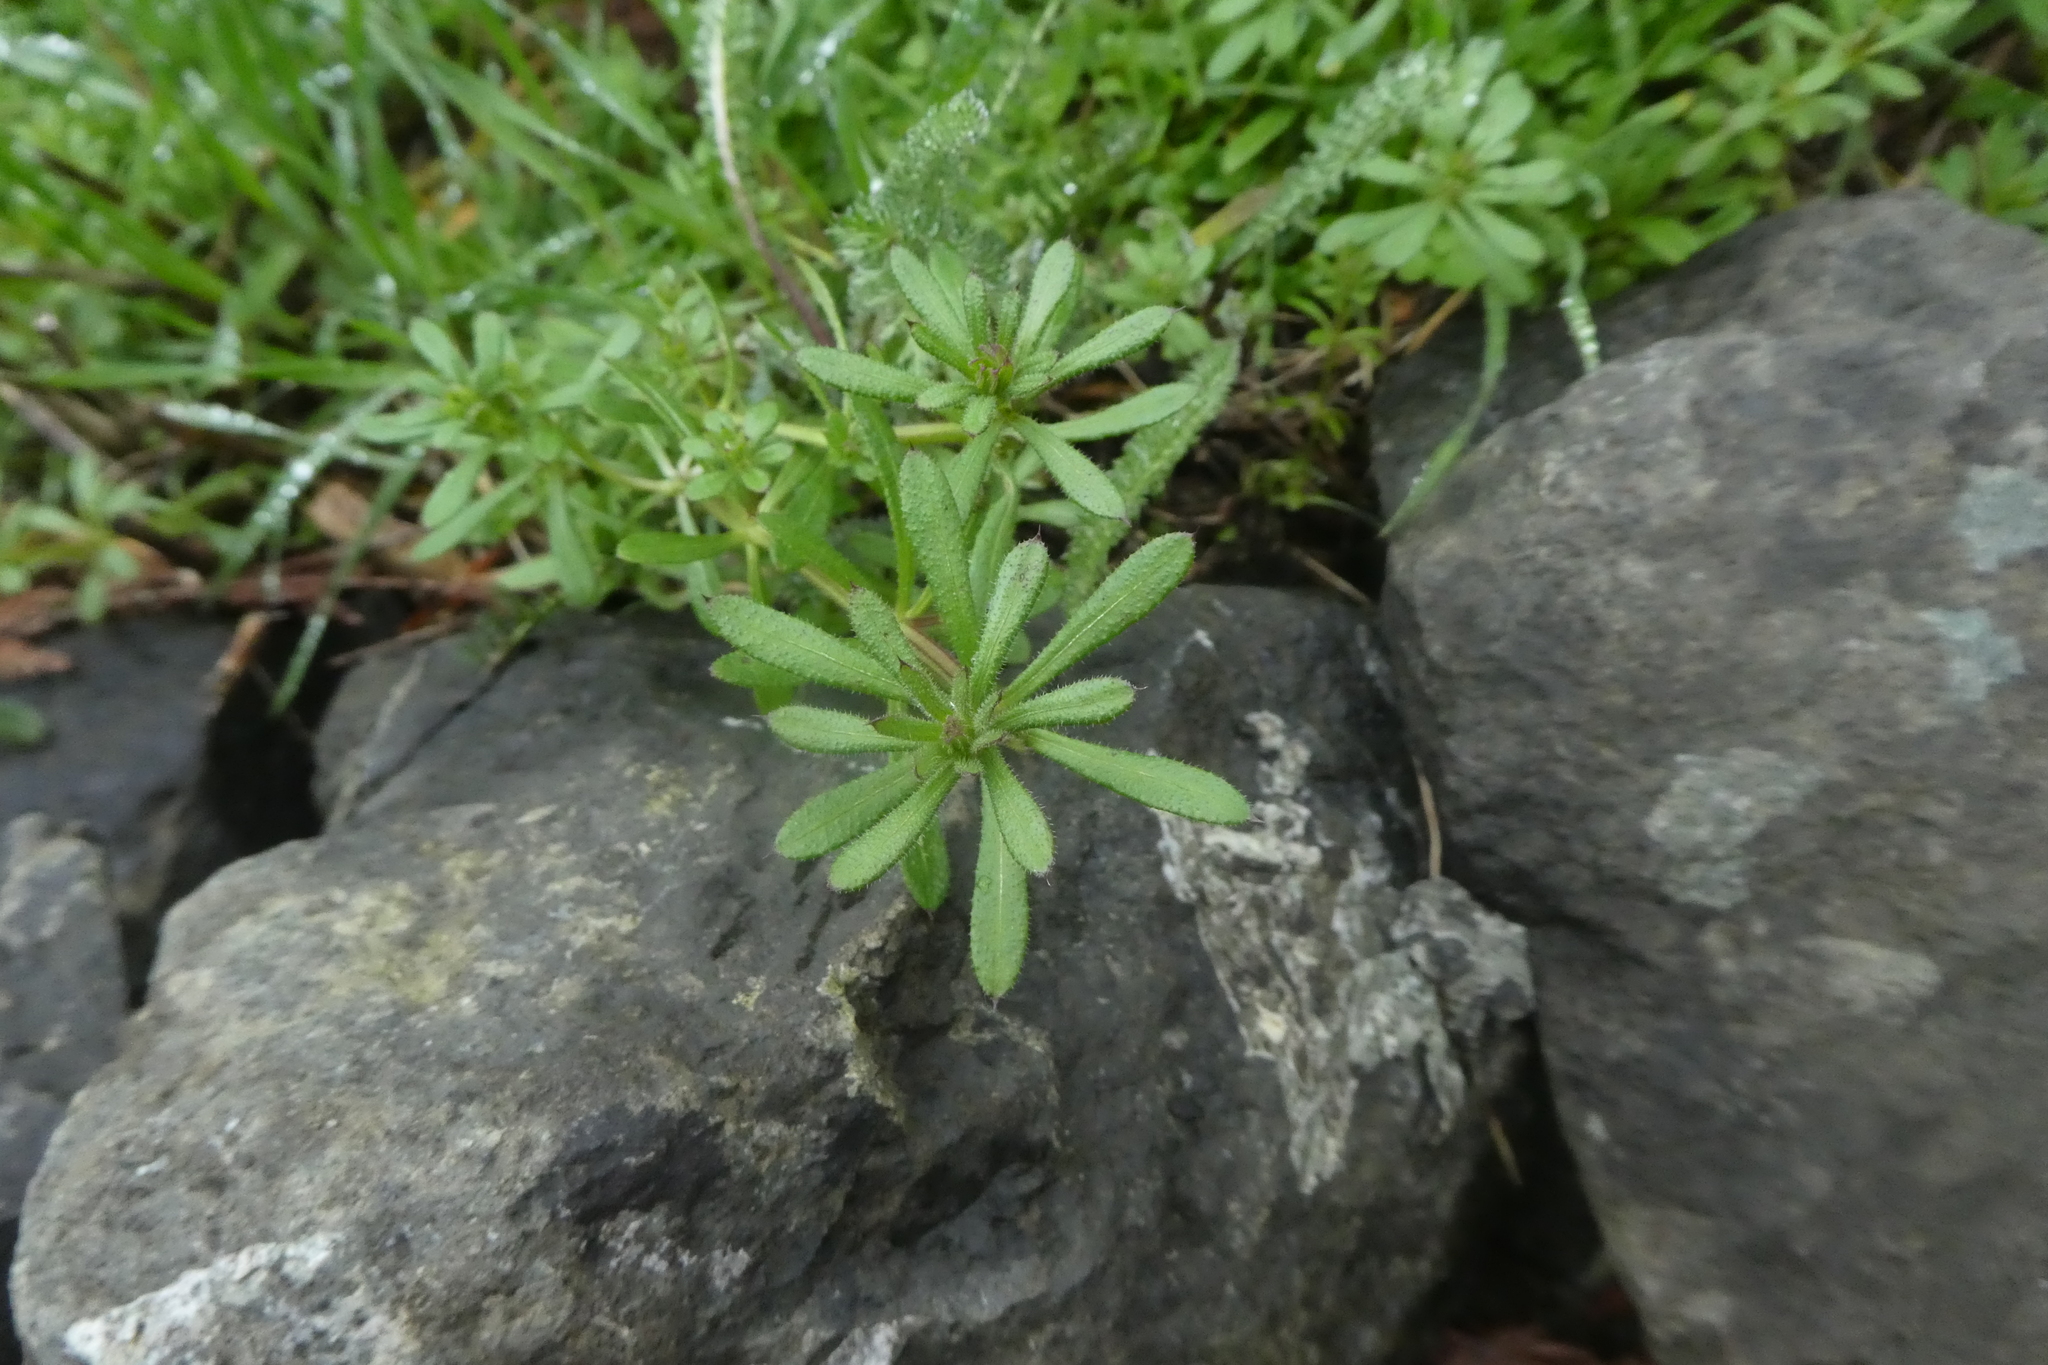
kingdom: Plantae
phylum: Tracheophyta
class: Magnoliopsida
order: Gentianales
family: Rubiaceae
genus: Galium
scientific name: Galium aparine
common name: Cleavers
